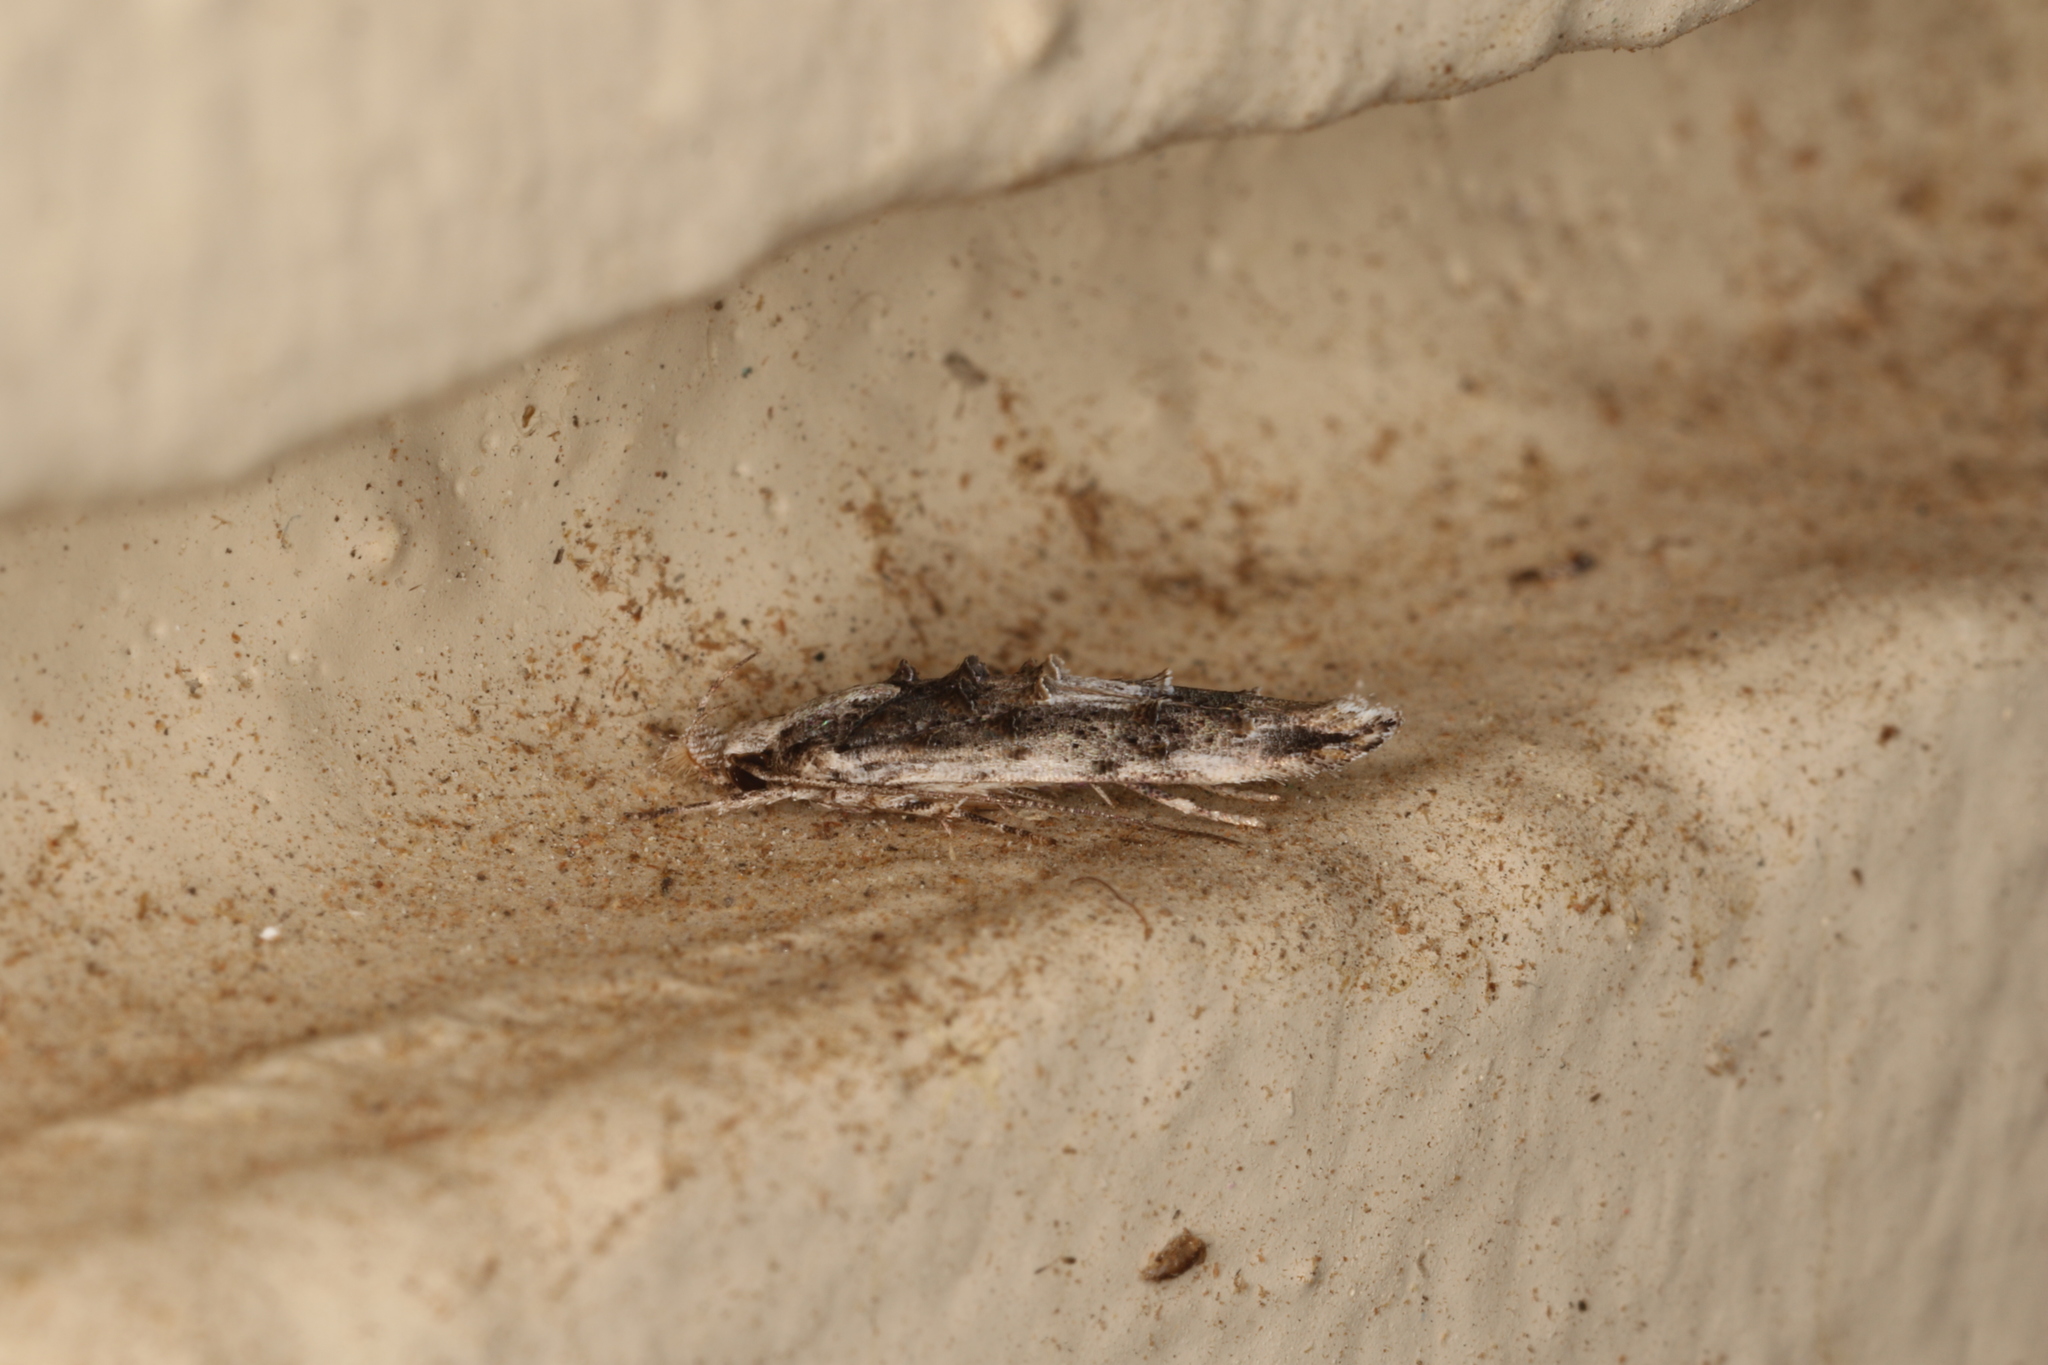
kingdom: Animalia
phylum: Arthropoda
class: Insecta
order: Lepidoptera
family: Elachistidae
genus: Trachydora
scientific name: Trachydora musaea
